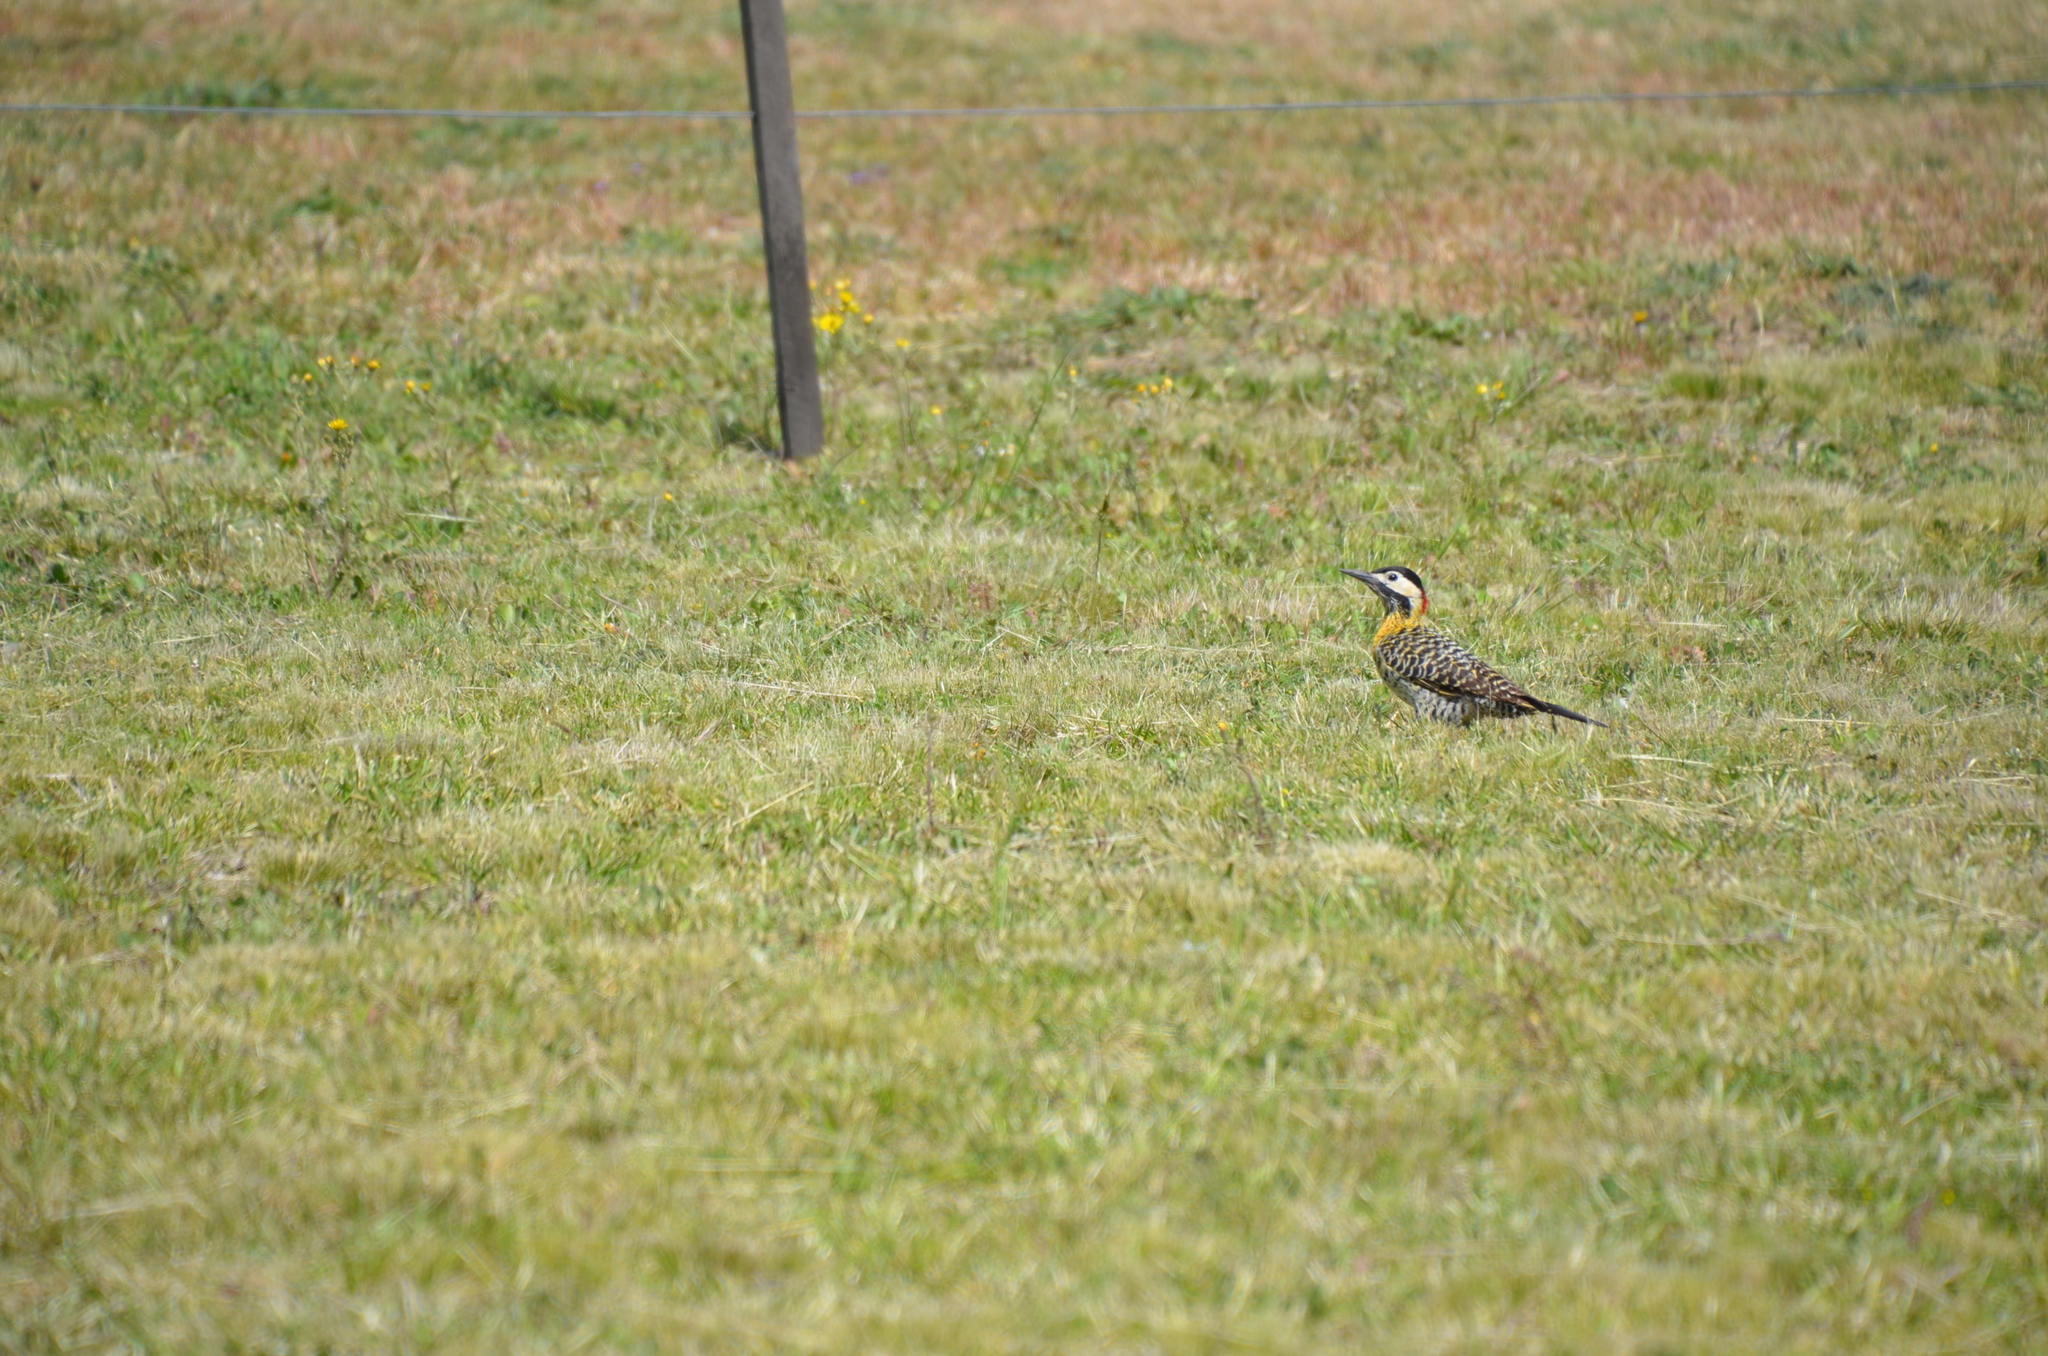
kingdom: Animalia
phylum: Chordata
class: Aves
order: Piciformes
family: Picidae
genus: Colaptes
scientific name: Colaptes melanochloros
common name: Green-barred woodpecker
